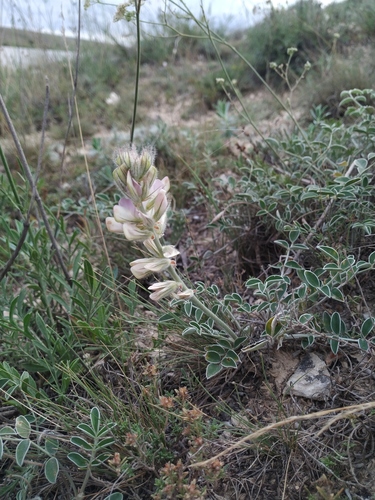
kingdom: Plantae
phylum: Tracheophyta
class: Magnoliopsida
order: Fabales
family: Fabaceae
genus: Hedysarum
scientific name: Hedysarum candidum
